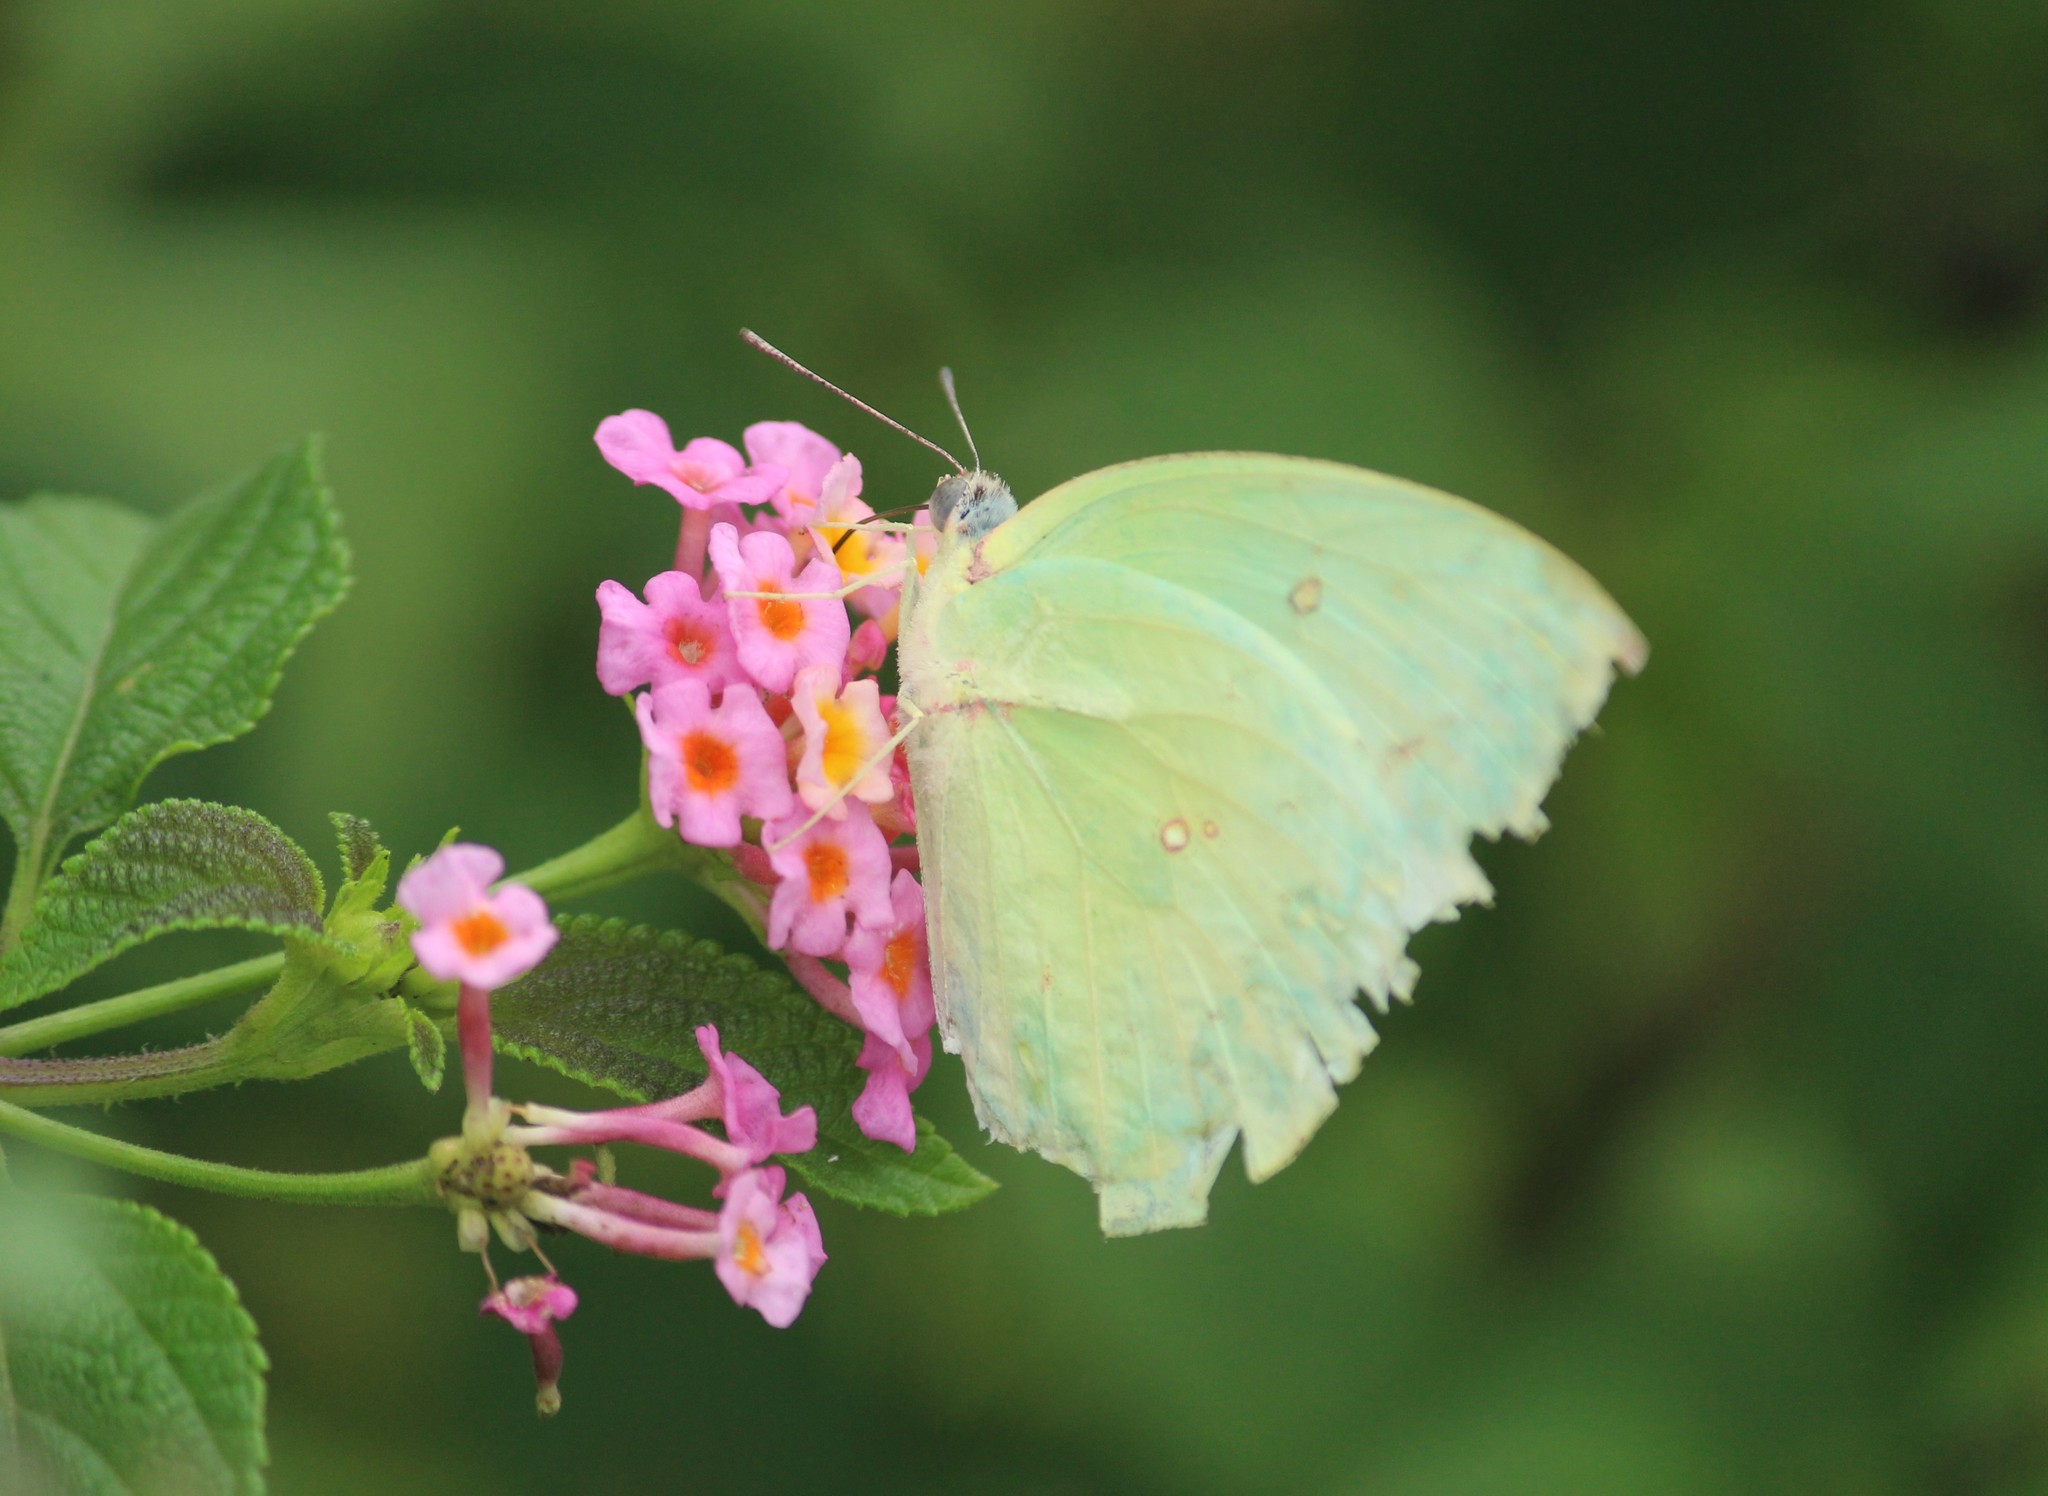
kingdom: Animalia
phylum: Arthropoda
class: Insecta
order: Lepidoptera
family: Pieridae
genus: Catopsilia
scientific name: Catopsilia pomona
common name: Common emigrant
